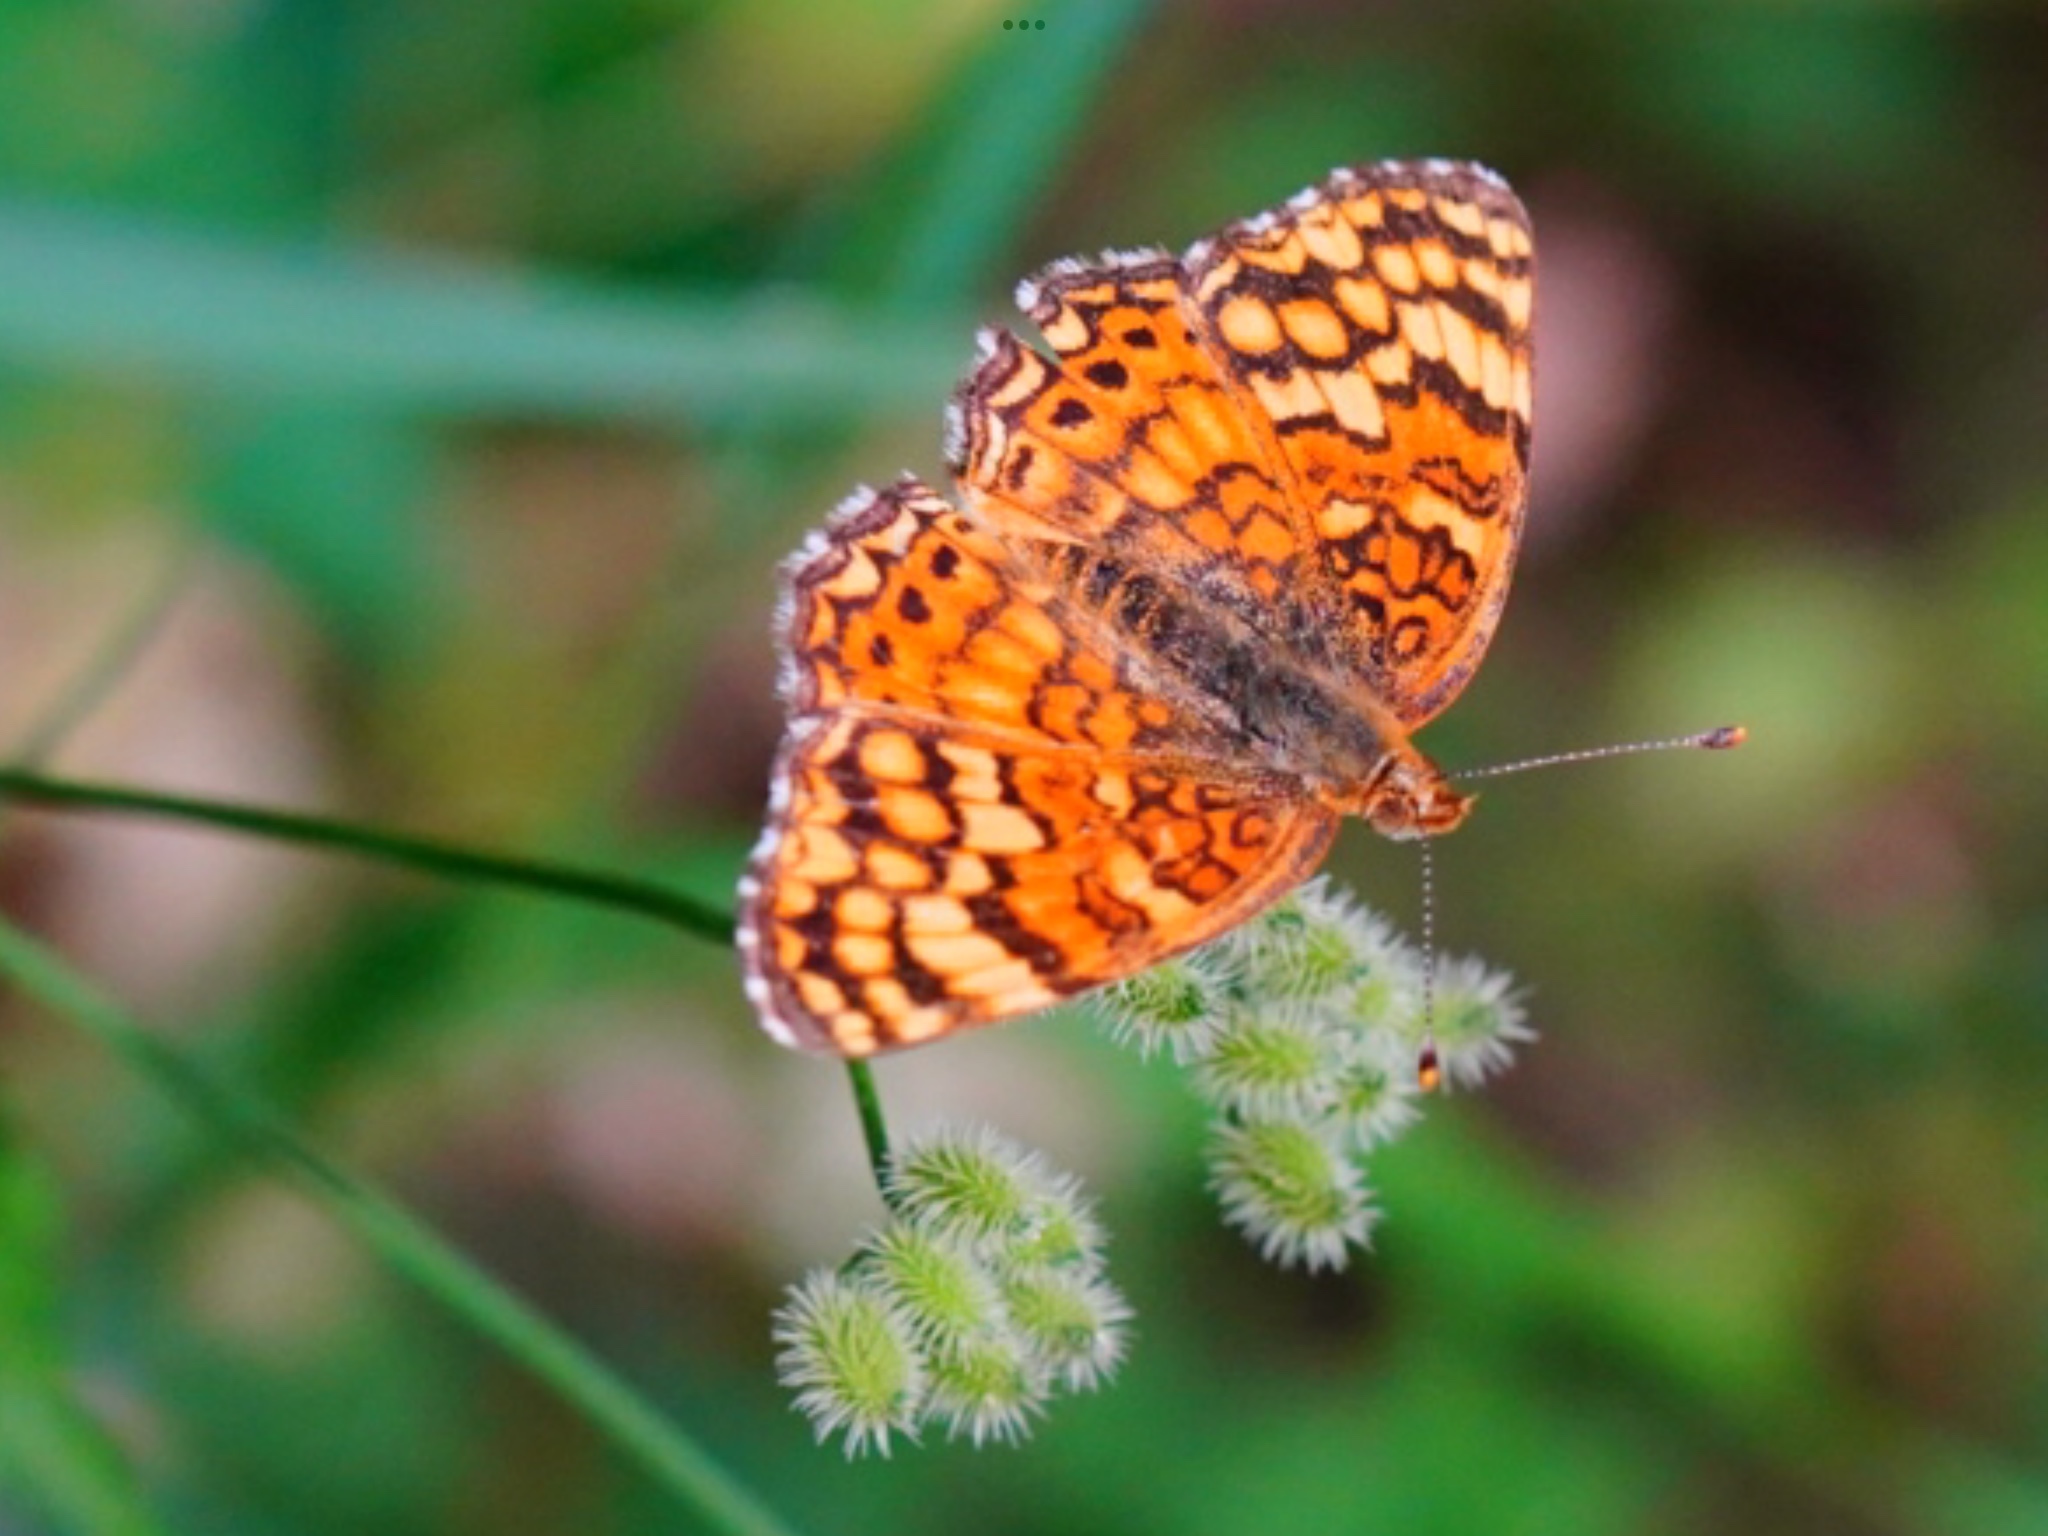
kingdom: Animalia
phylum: Arthropoda
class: Insecta
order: Lepidoptera
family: Nymphalidae
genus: Eresia
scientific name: Eresia aveyrona
